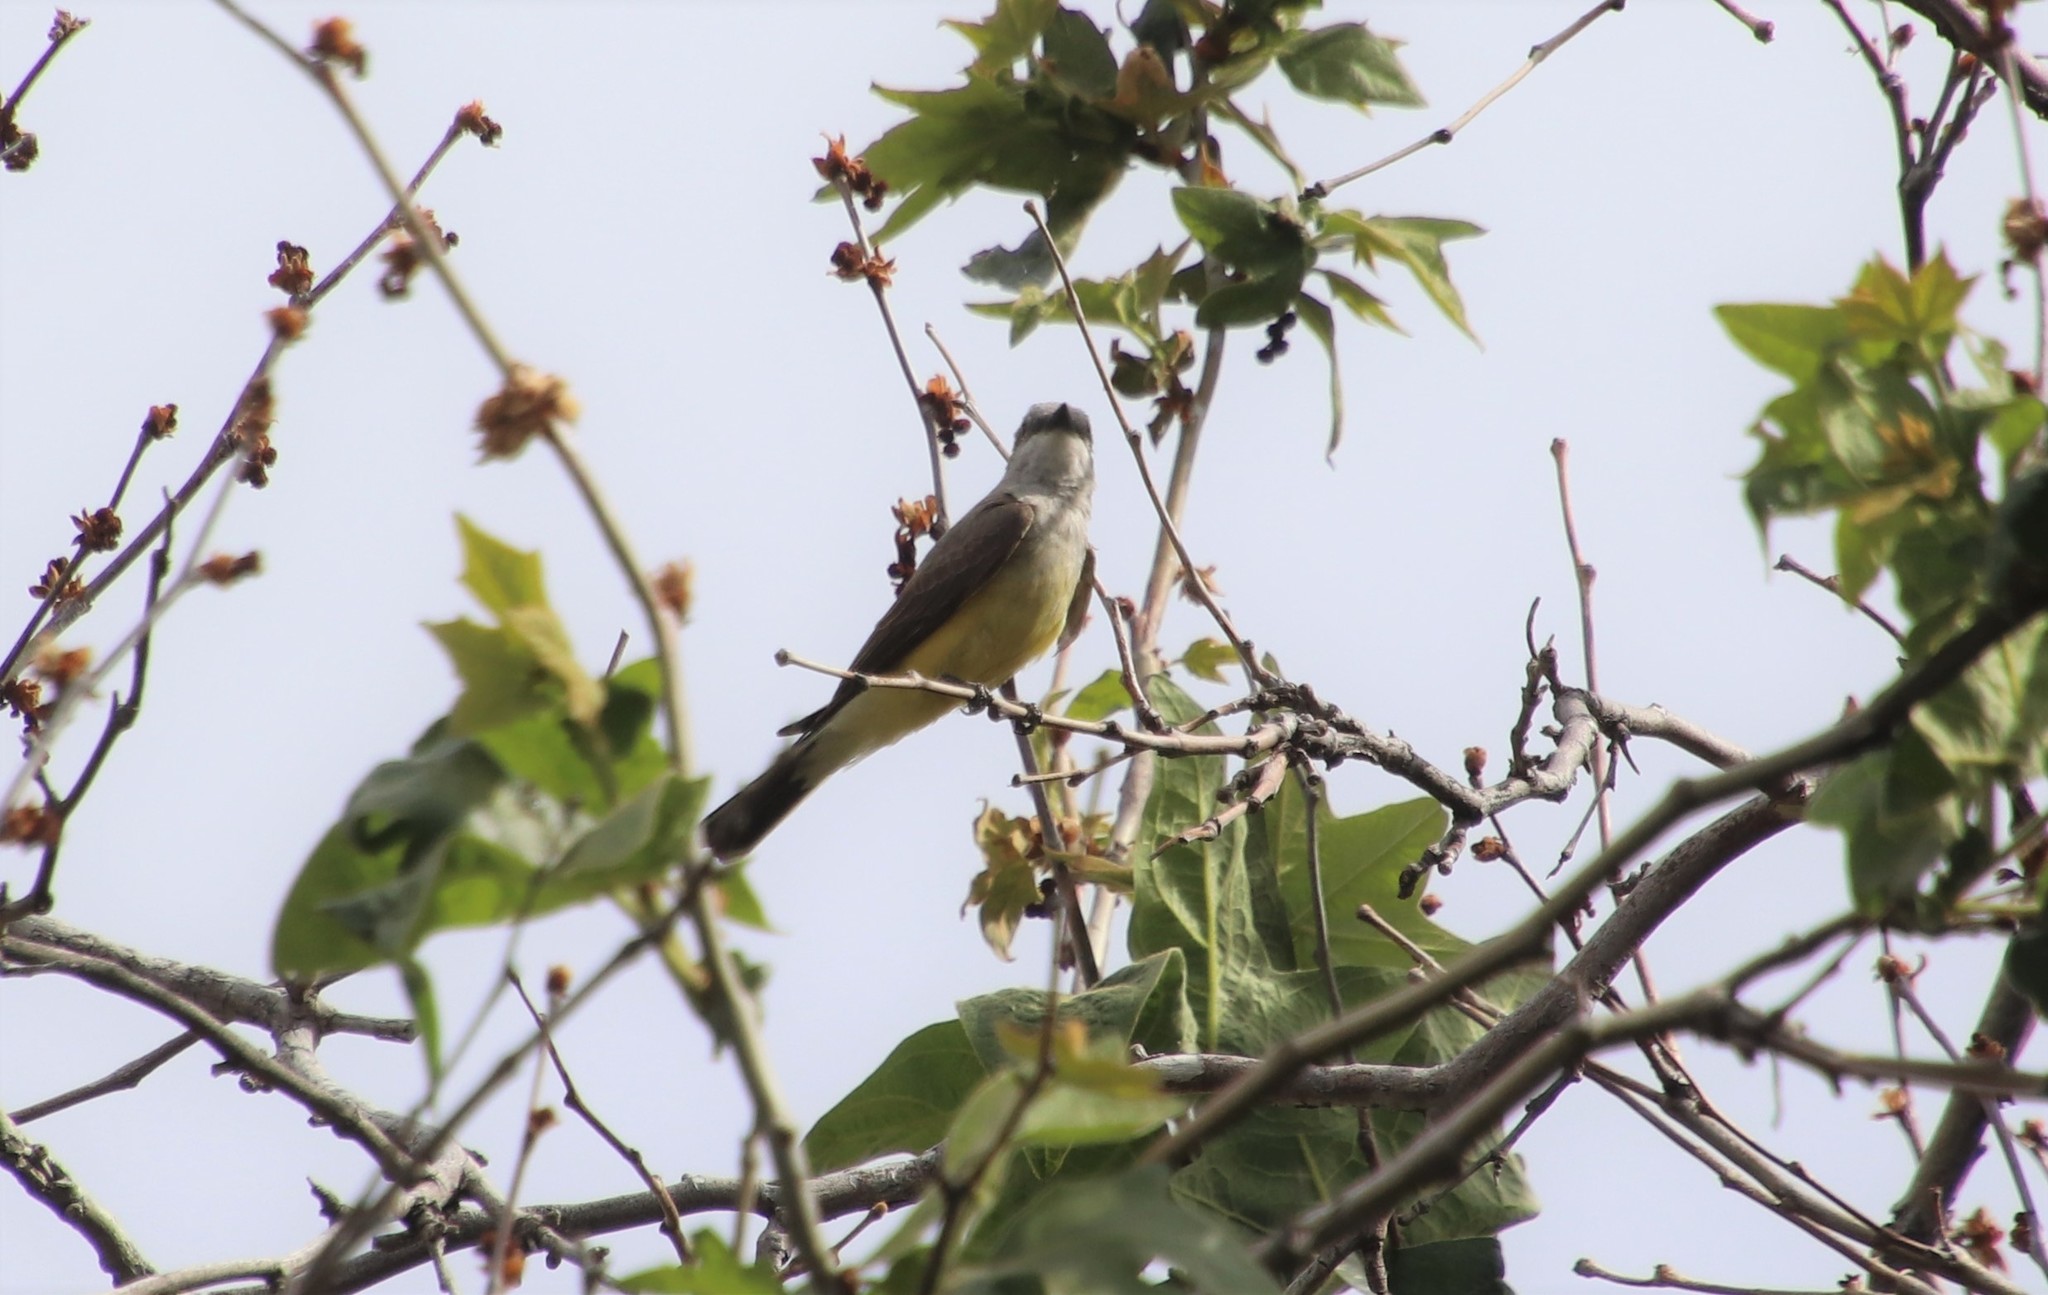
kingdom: Animalia
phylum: Chordata
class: Aves
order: Passeriformes
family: Tyrannidae
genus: Tyrannus
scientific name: Tyrannus verticalis
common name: Western kingbird
